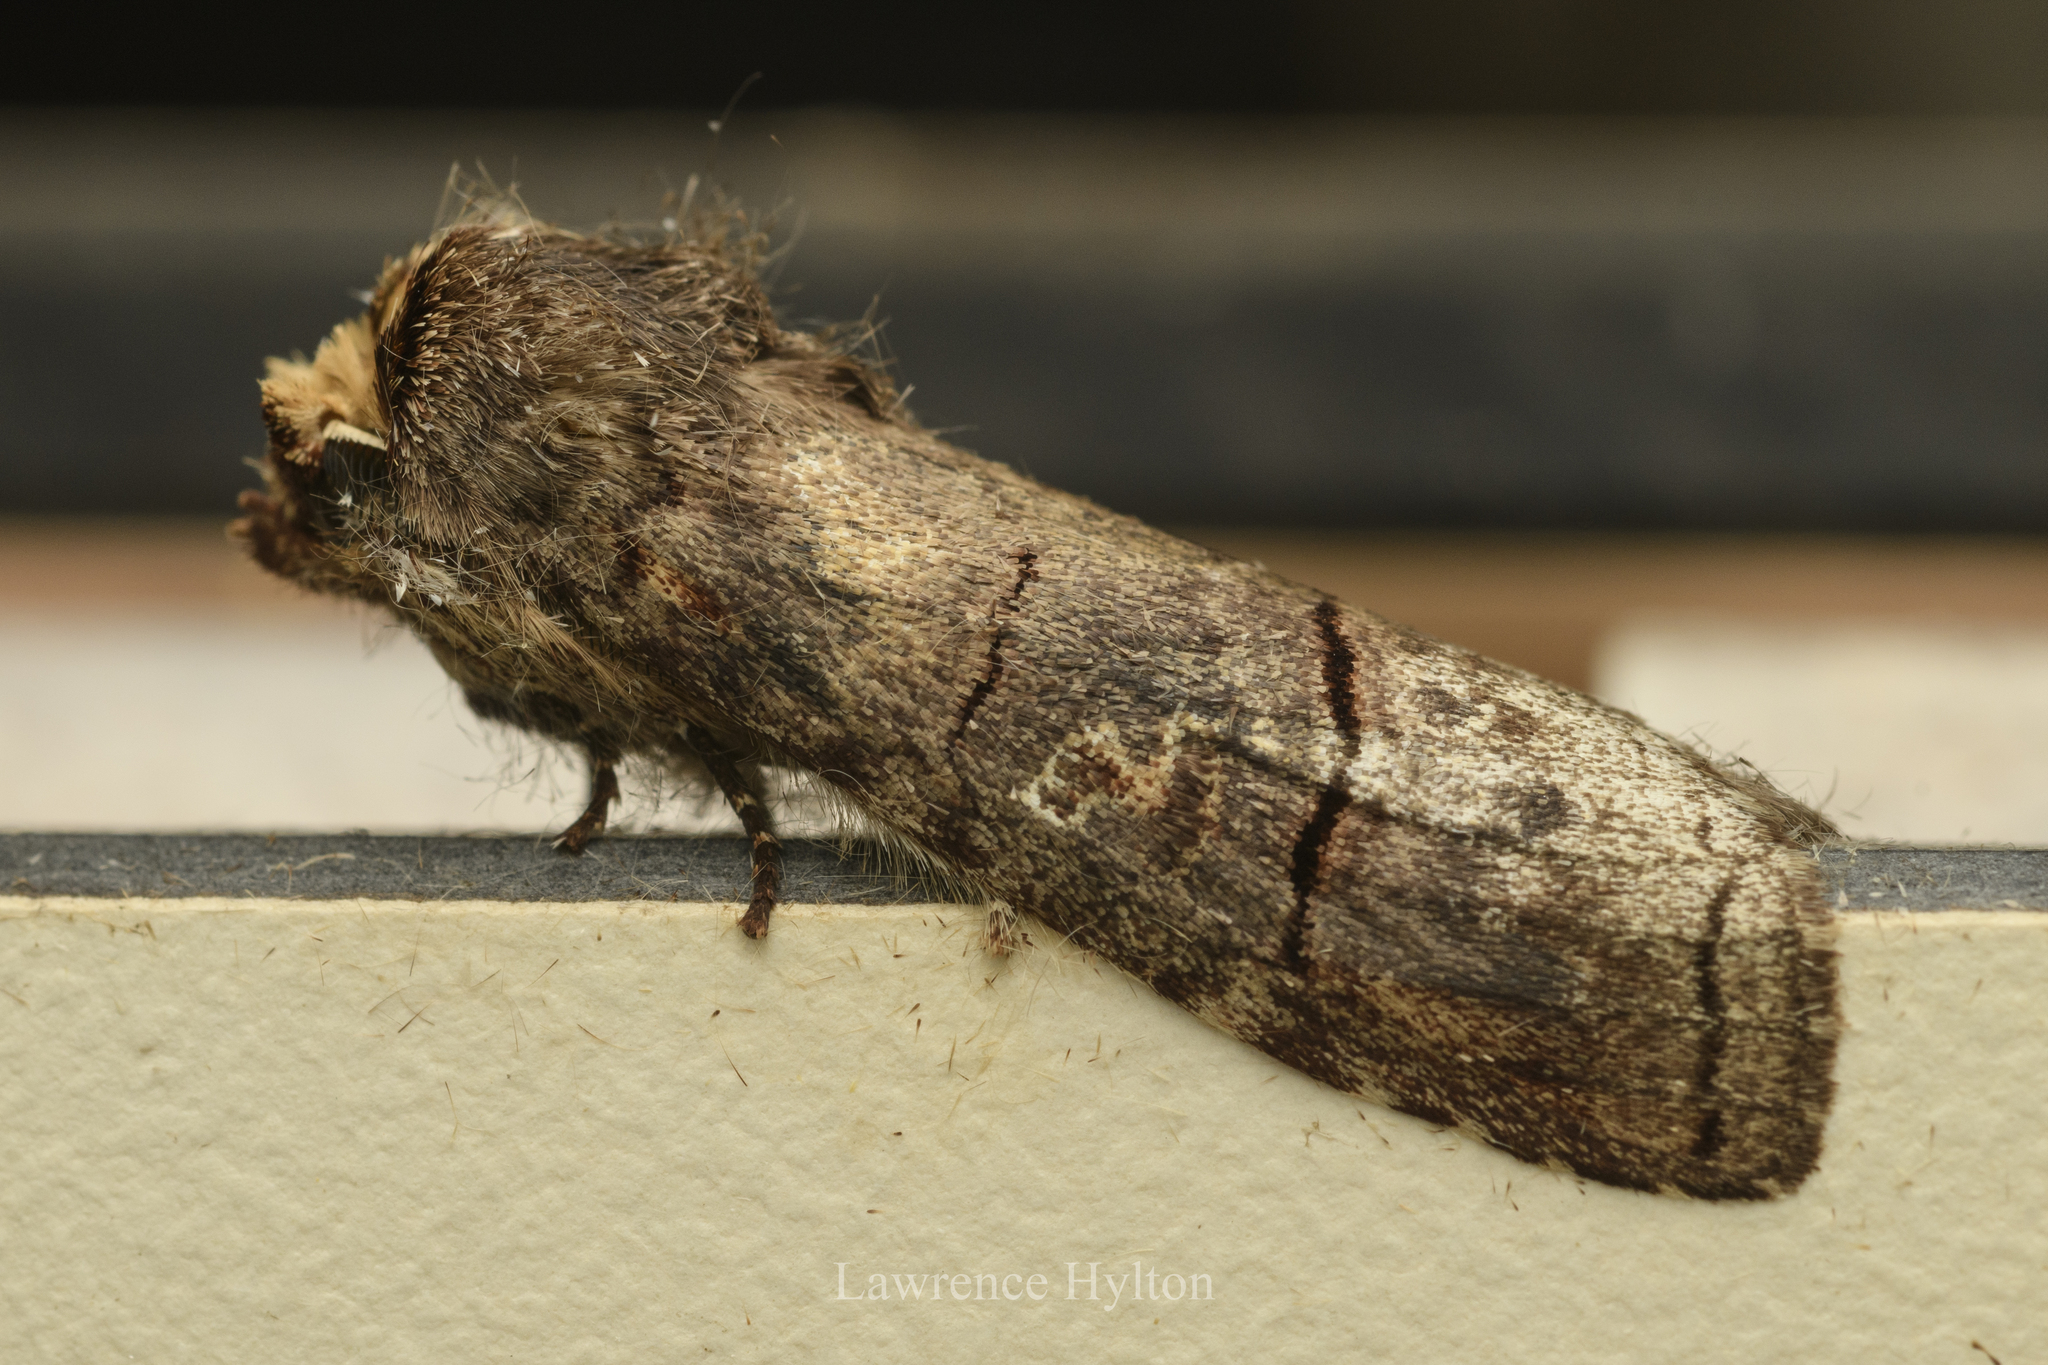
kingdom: Animalia
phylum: Arthropoda
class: Insecta
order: Lepidoptera
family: Notodontidae
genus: Antiphalera
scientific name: Antiphalera exquisitor
